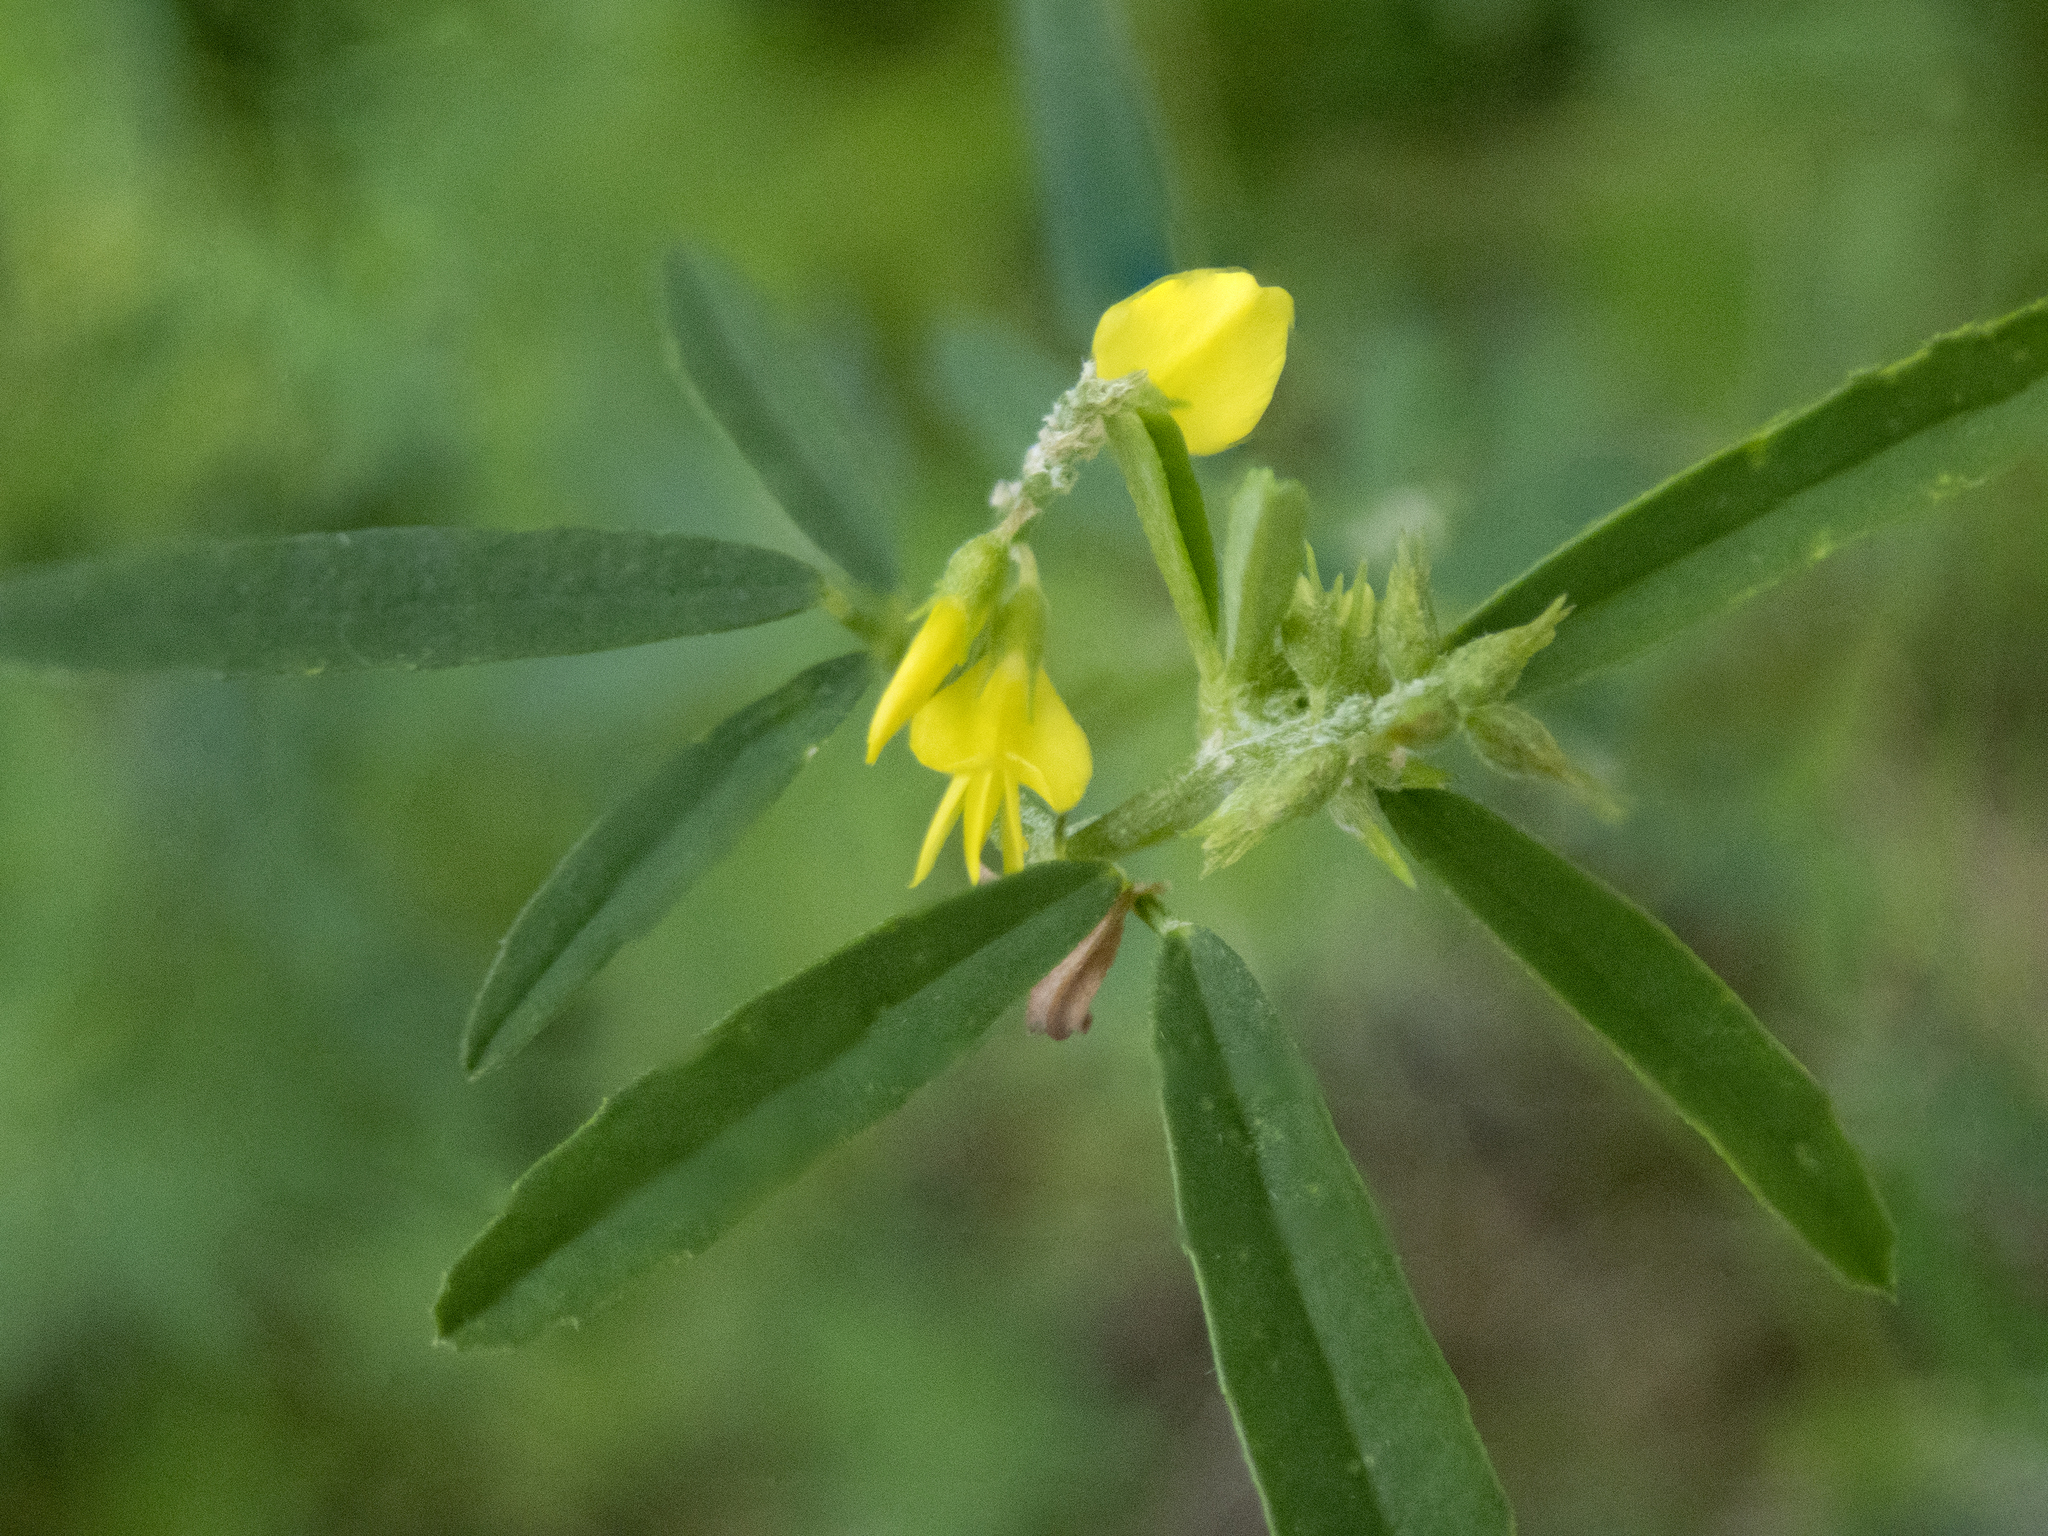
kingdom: Plantae
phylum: Tracheophyta
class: Magnoliopsida
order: Fabales
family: Fabaceae
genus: Melilotus
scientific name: Melilotus officinalis
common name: Sweetclover
